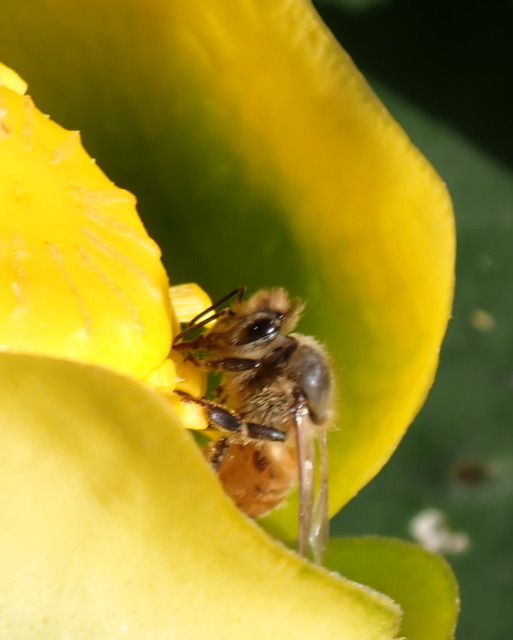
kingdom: Animalia
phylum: Arthropoda
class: Insecta
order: Hymenoptera
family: Apidae
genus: Apis
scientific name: Apis mellifera
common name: Honey bee
